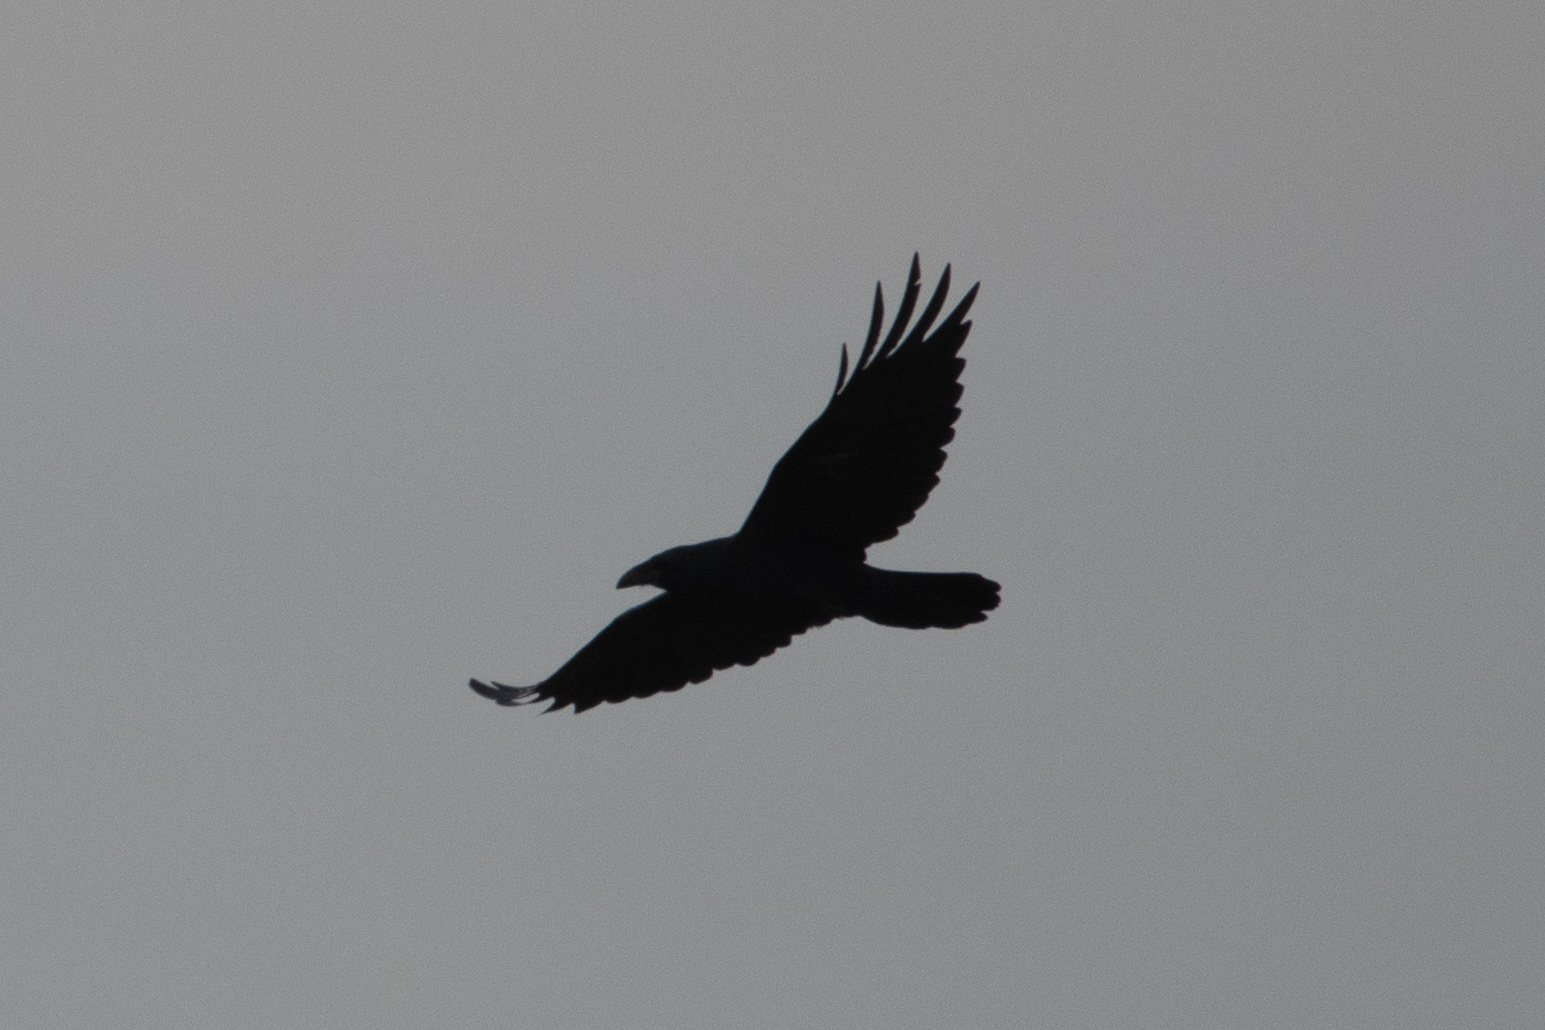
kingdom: Animalia
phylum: Chordata
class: Aves
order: Passeriformes
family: Corvidae
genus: Corvus
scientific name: Corvus corax
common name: Common raven
